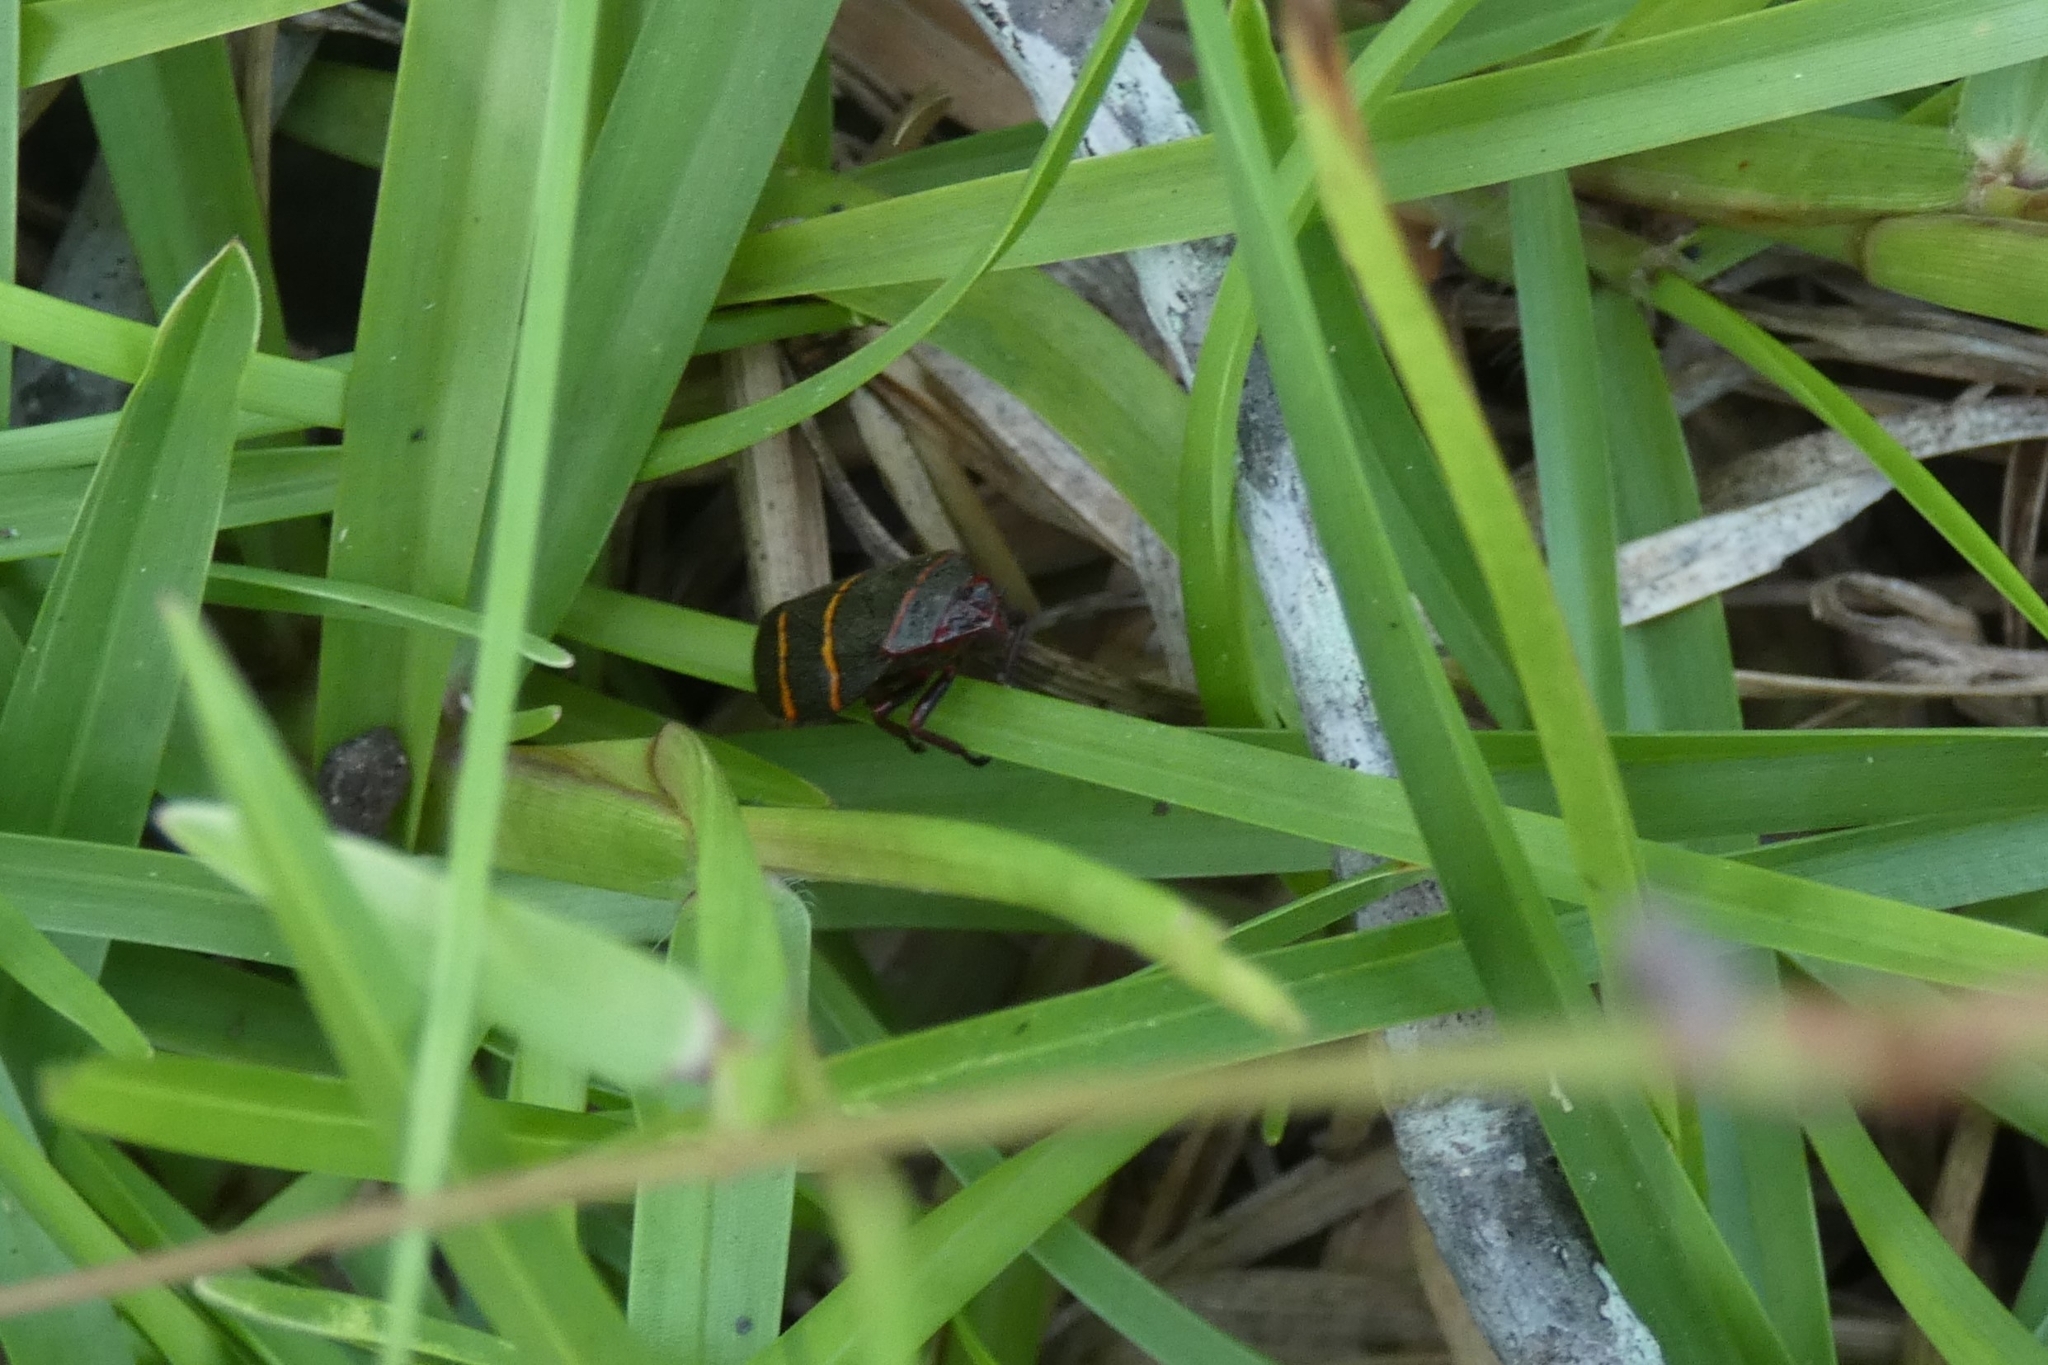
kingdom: Animalia
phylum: Arthropoda
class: Insecta
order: Hemiptera
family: Cercopidae
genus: Prosapia
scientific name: Prosapia bicincta
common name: Twolined spittlebug
